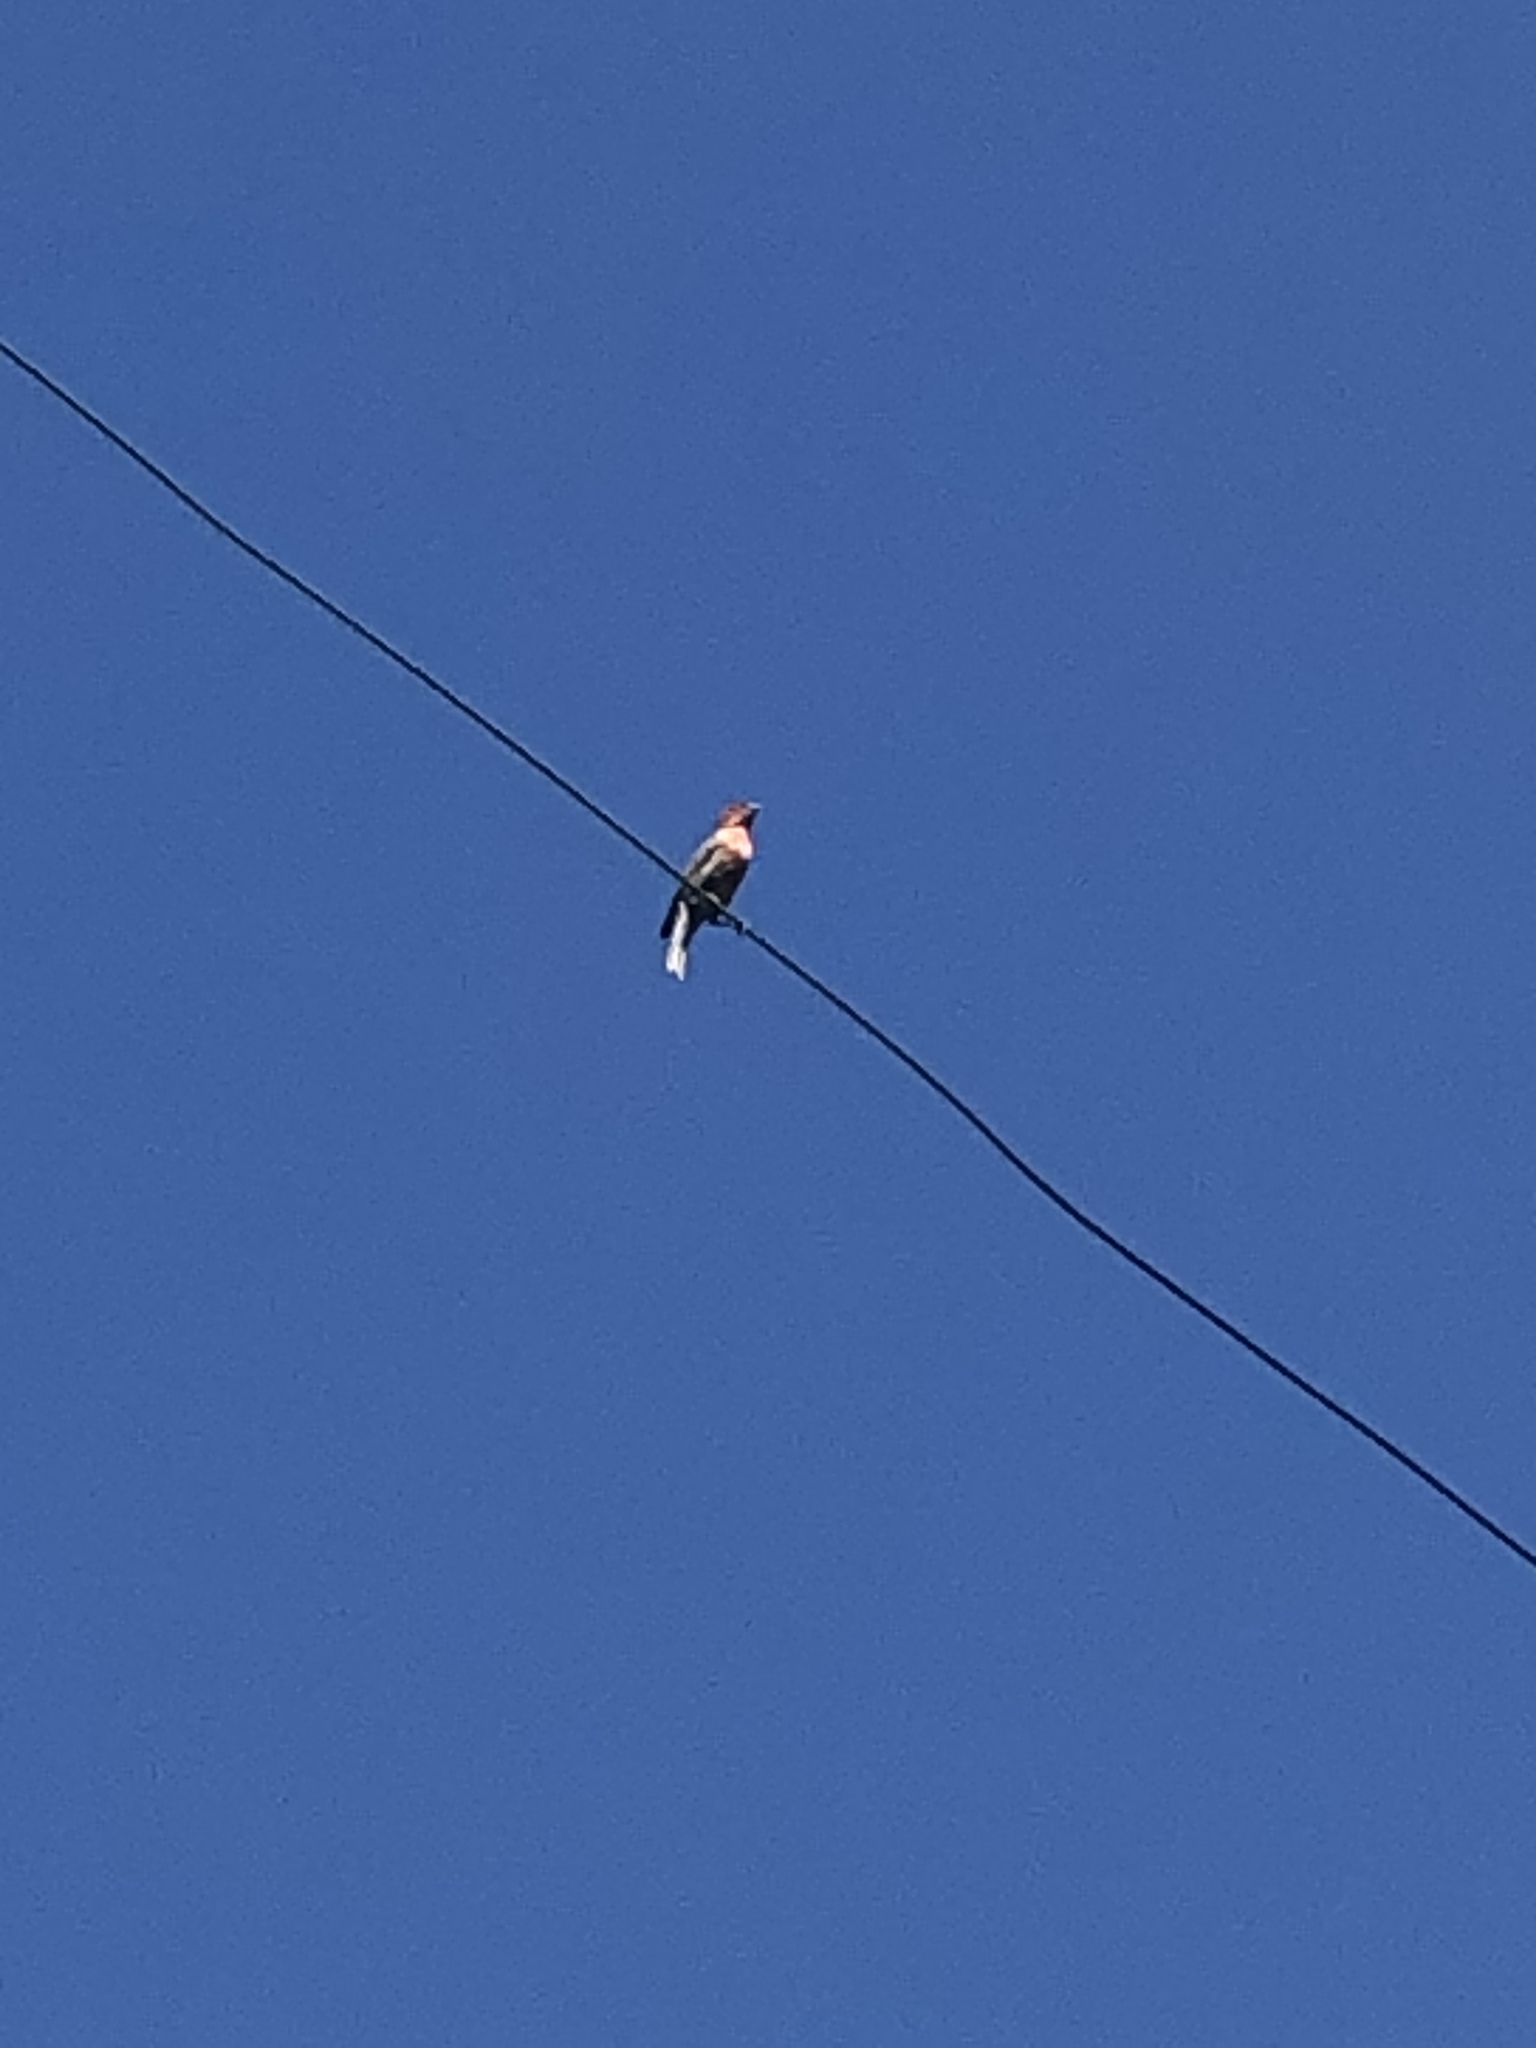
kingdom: Animalia
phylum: Chordata
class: Aves
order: Passeriformes
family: Fringillidae
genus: Haemorhous
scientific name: Haemorhous mexicanus
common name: House finch
